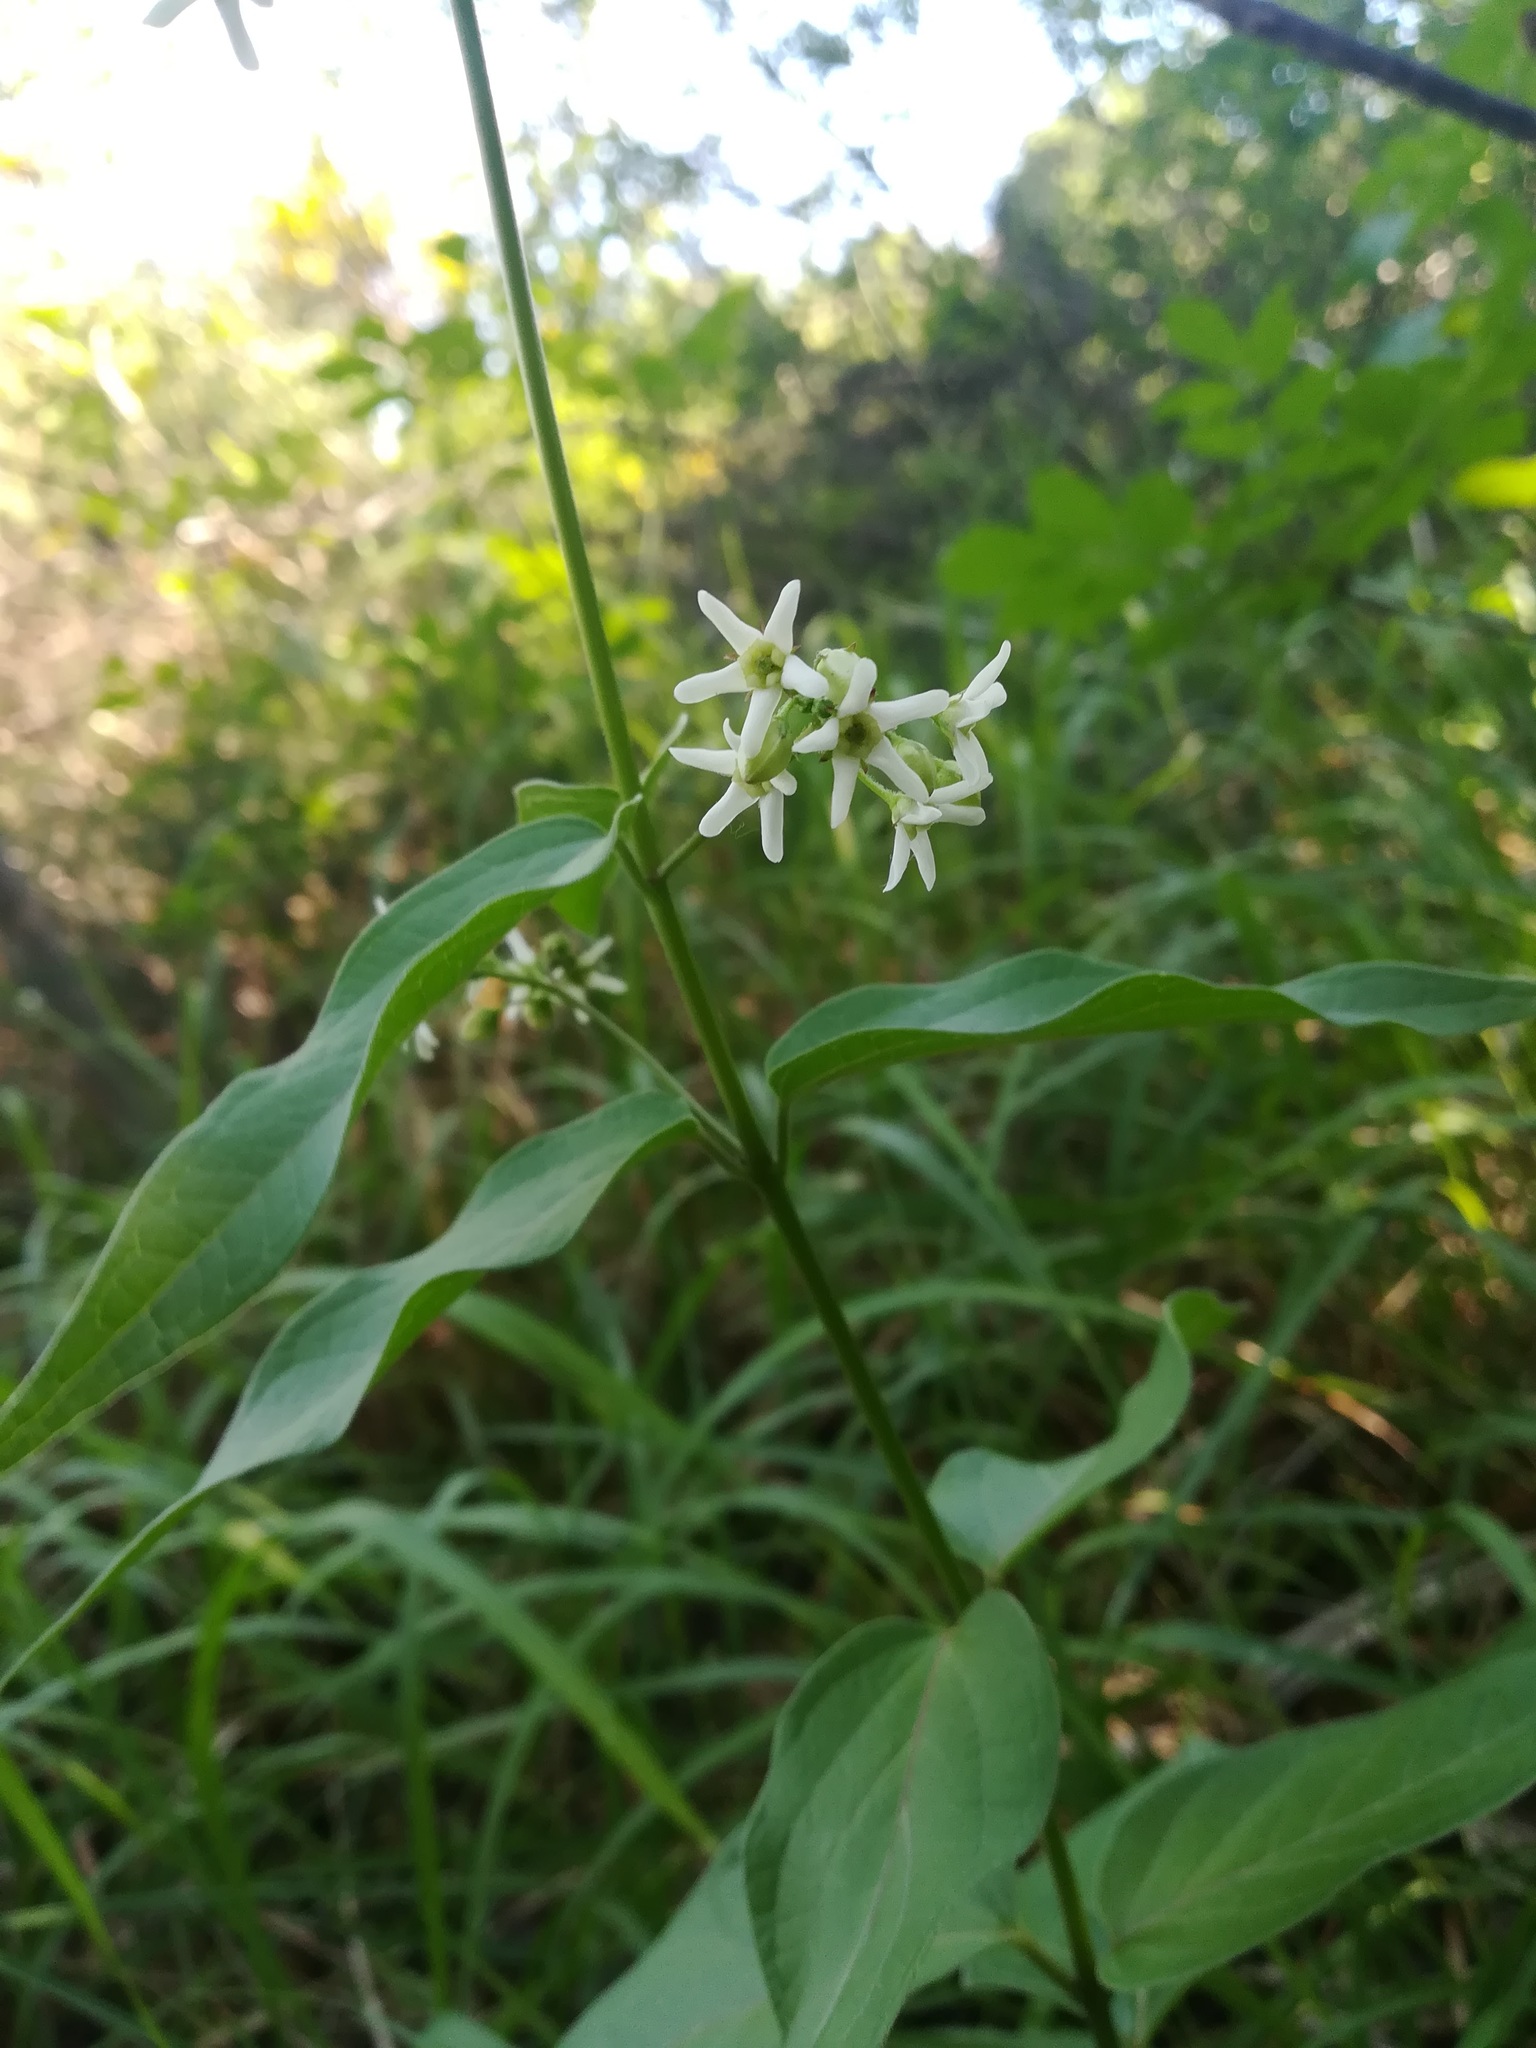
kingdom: Plantae
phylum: Tracheophyta
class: Magnoliopsida
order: Gentianales
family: Apocynaceae
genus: Vincetoxicum
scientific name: Vincetoxicum hirundinaria
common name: White swallowwort
